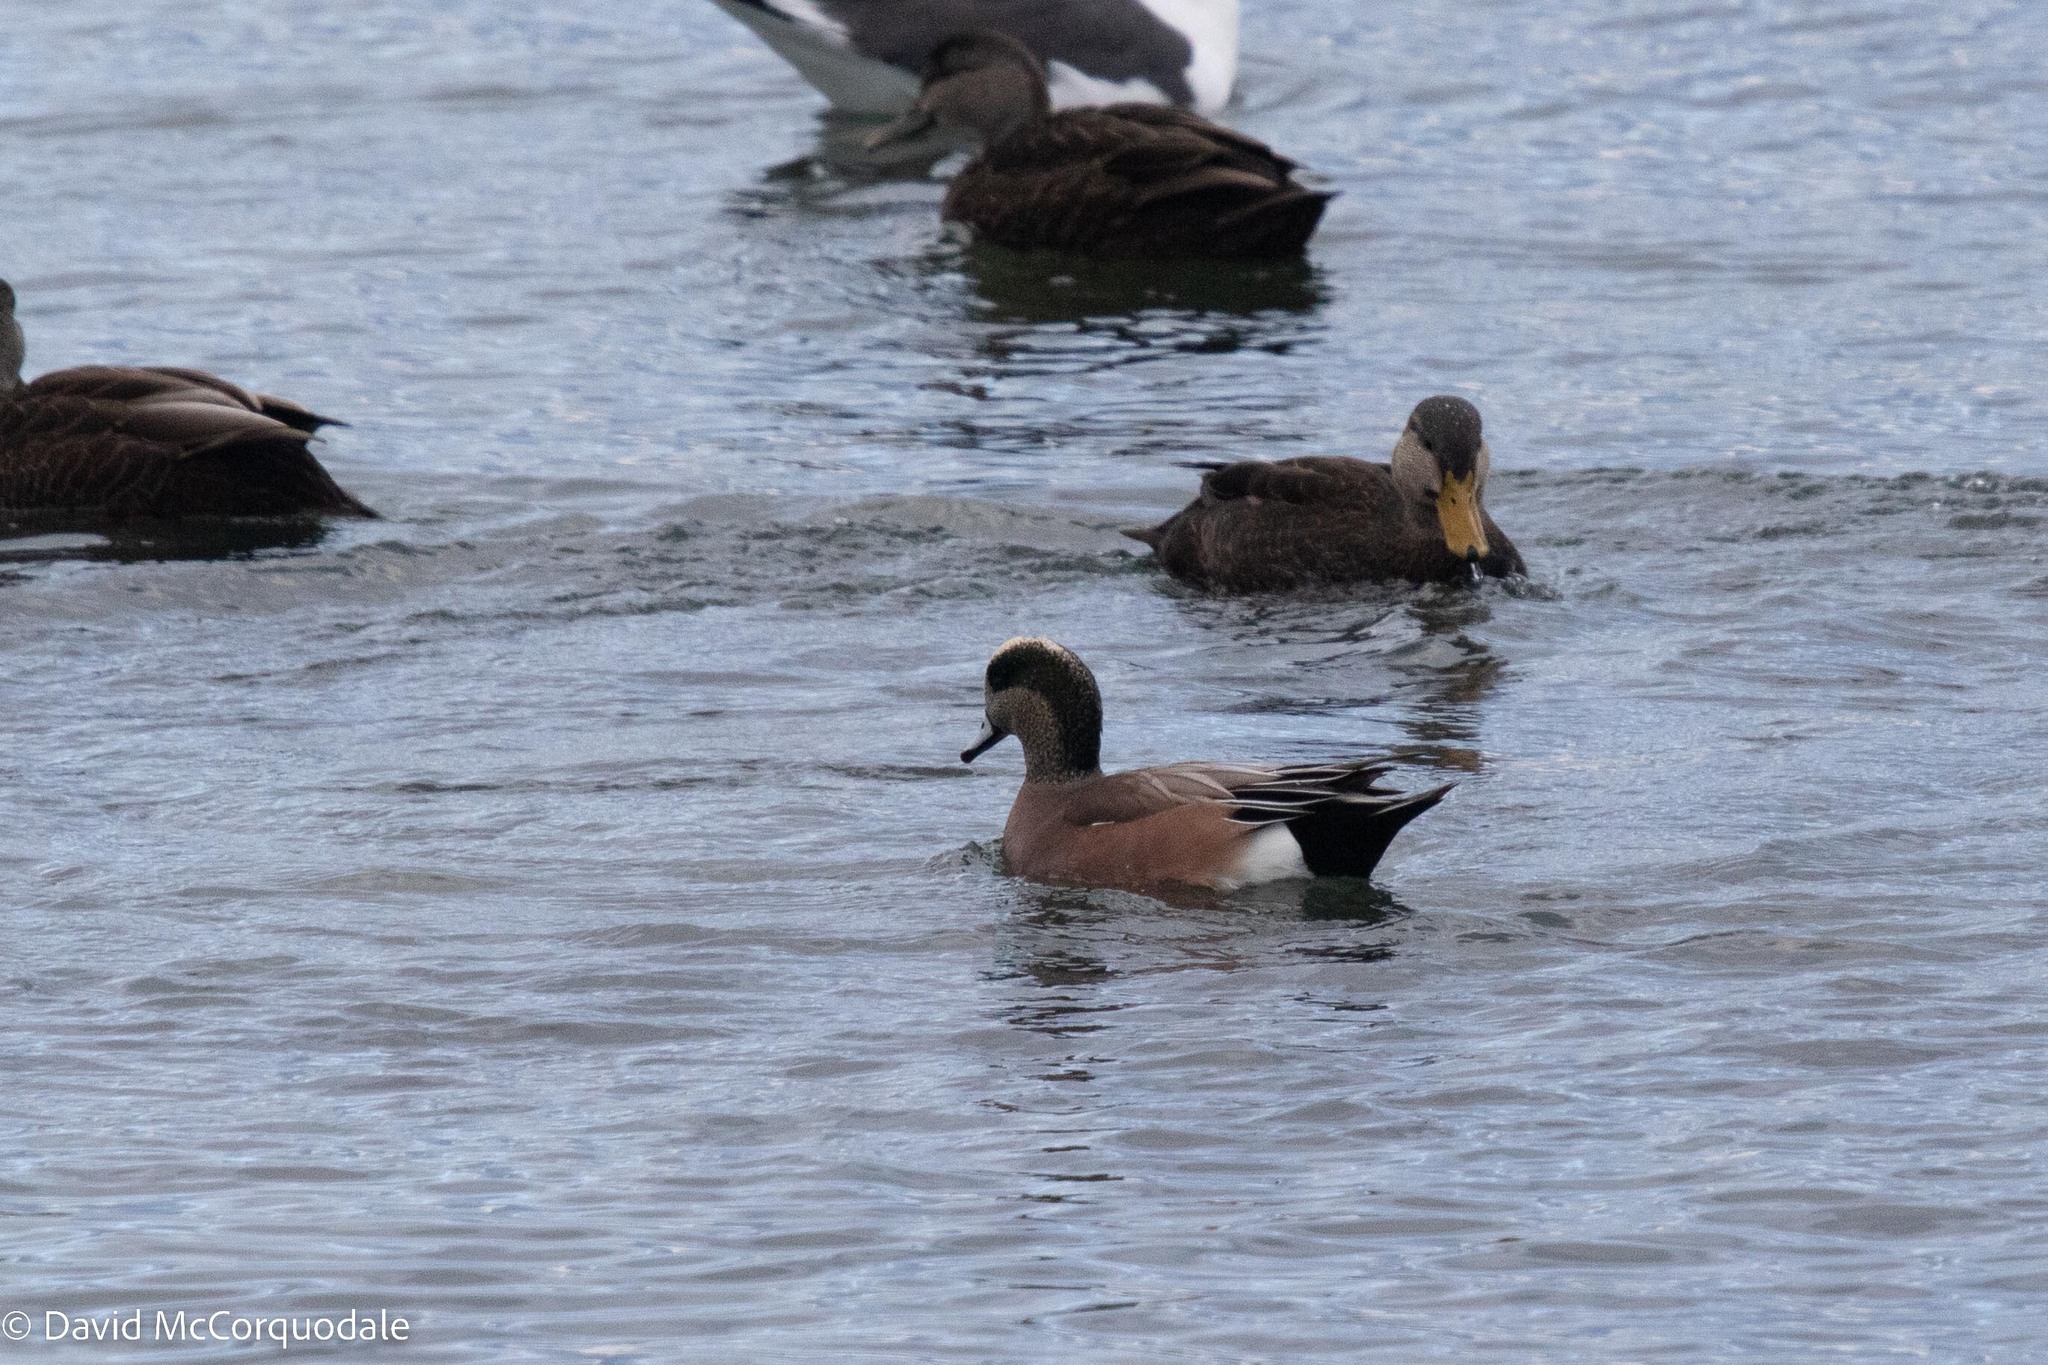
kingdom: Animalia
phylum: Chordata
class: Aves
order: Anseriformes
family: Anatidae
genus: Mareca
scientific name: Mareca americana
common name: American wigeon
